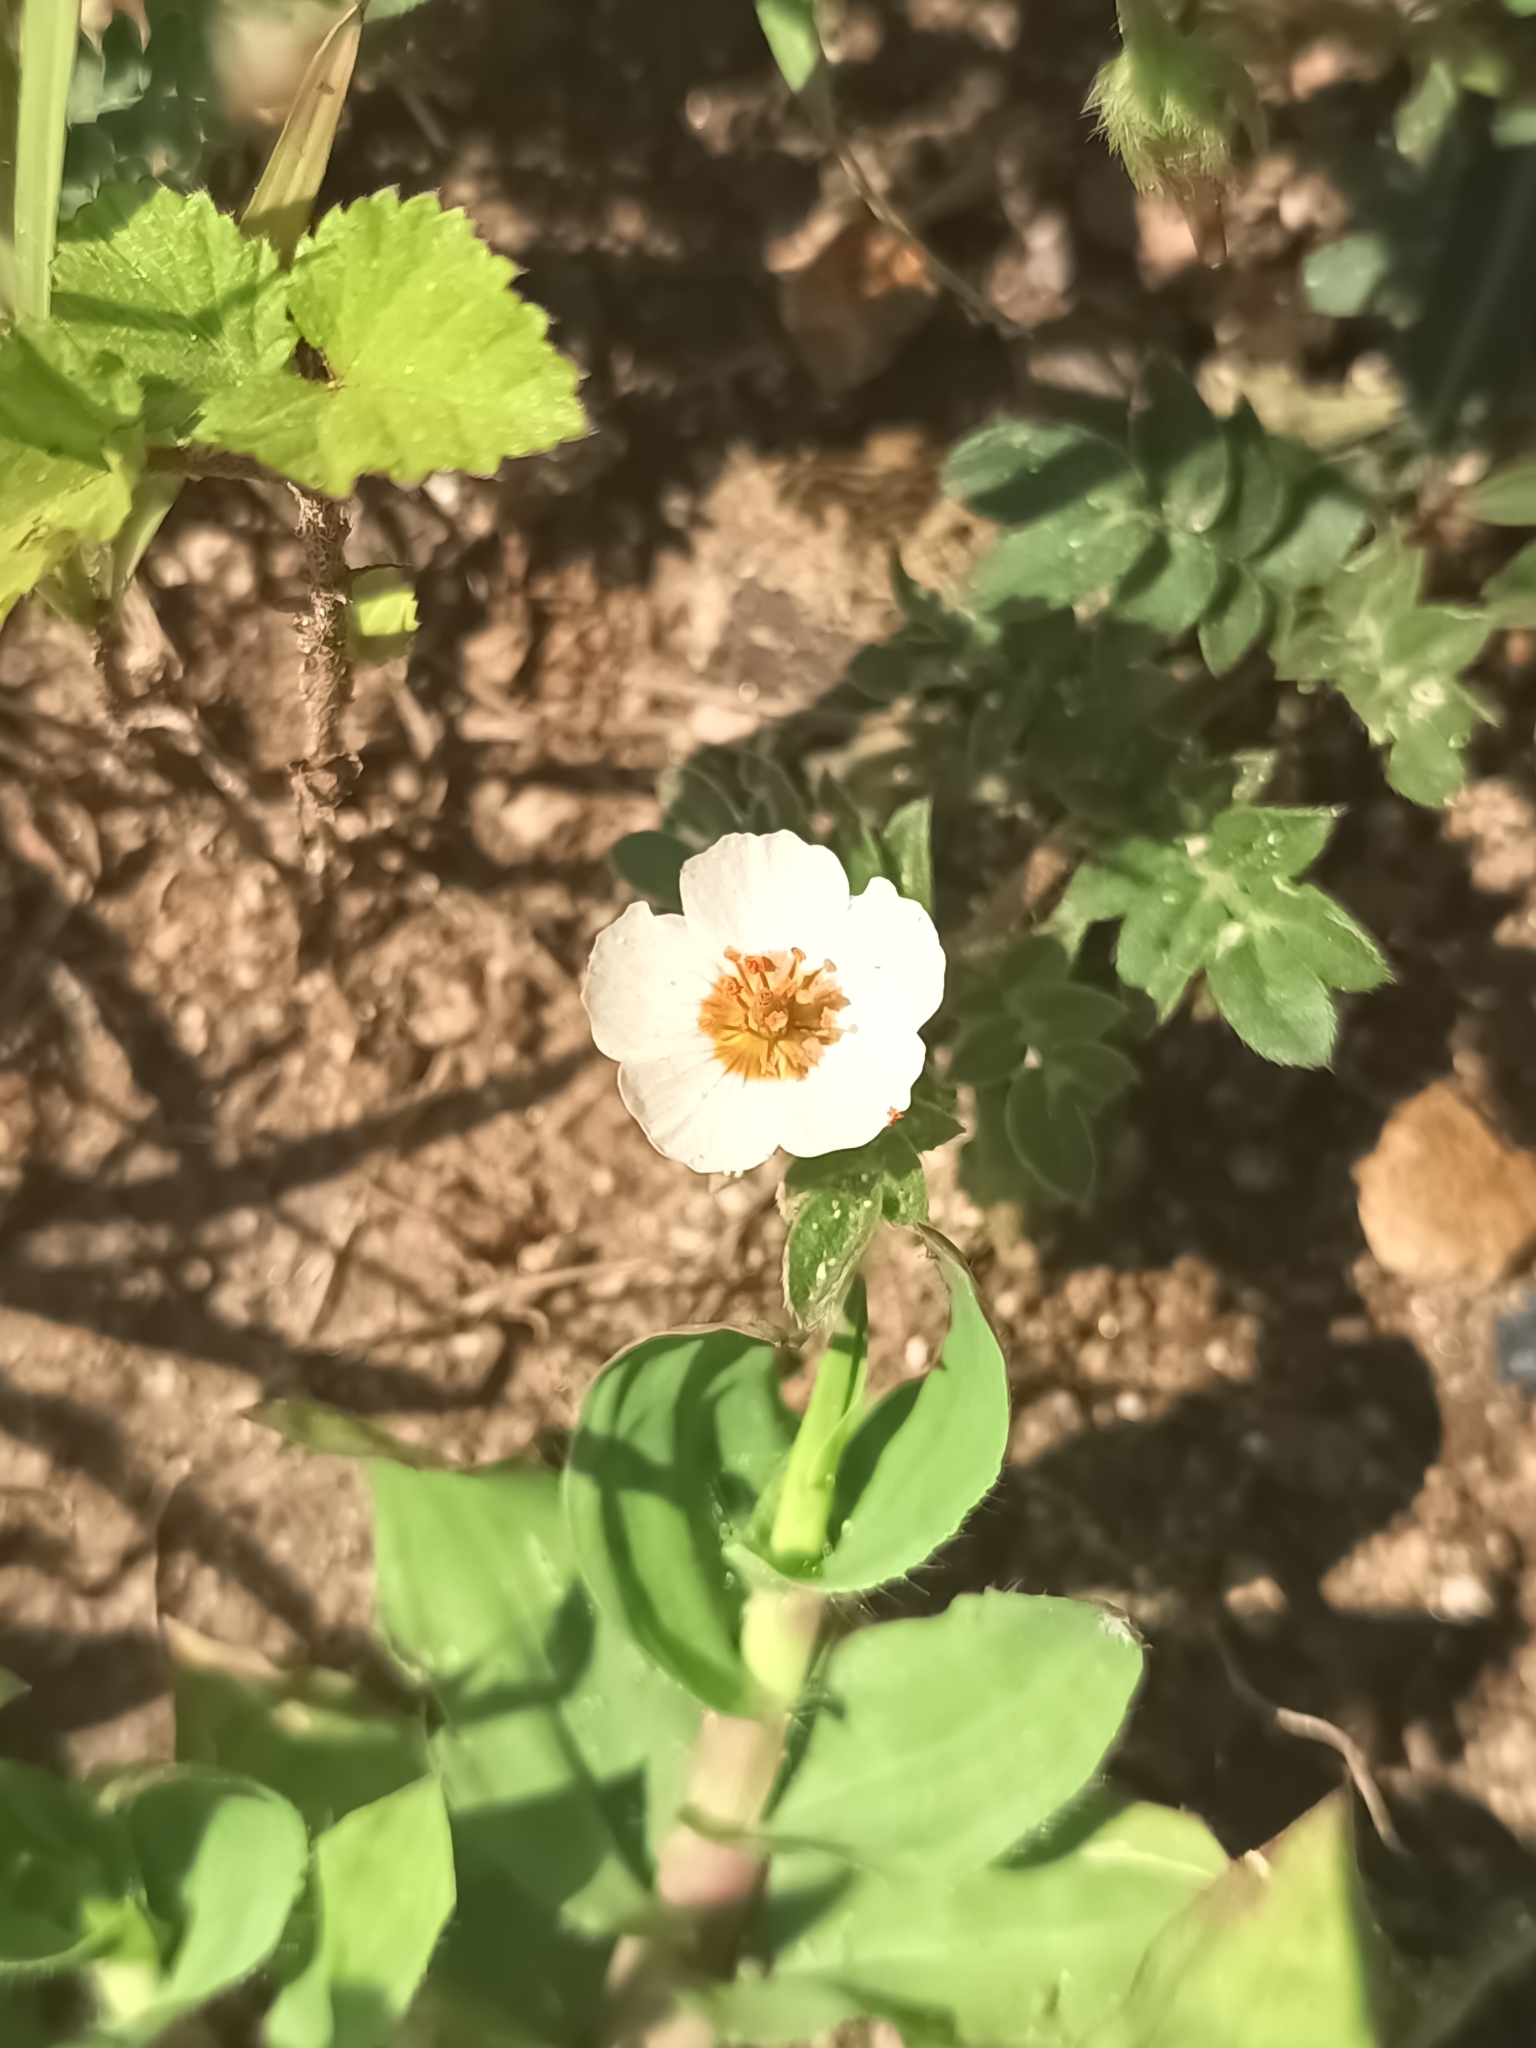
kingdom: Plantae
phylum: Tracheophyta
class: Magnoliopsida
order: Zygophyllales
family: Zygophyllaceae
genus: Kallstroemia
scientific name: Kallstroemia rosei
